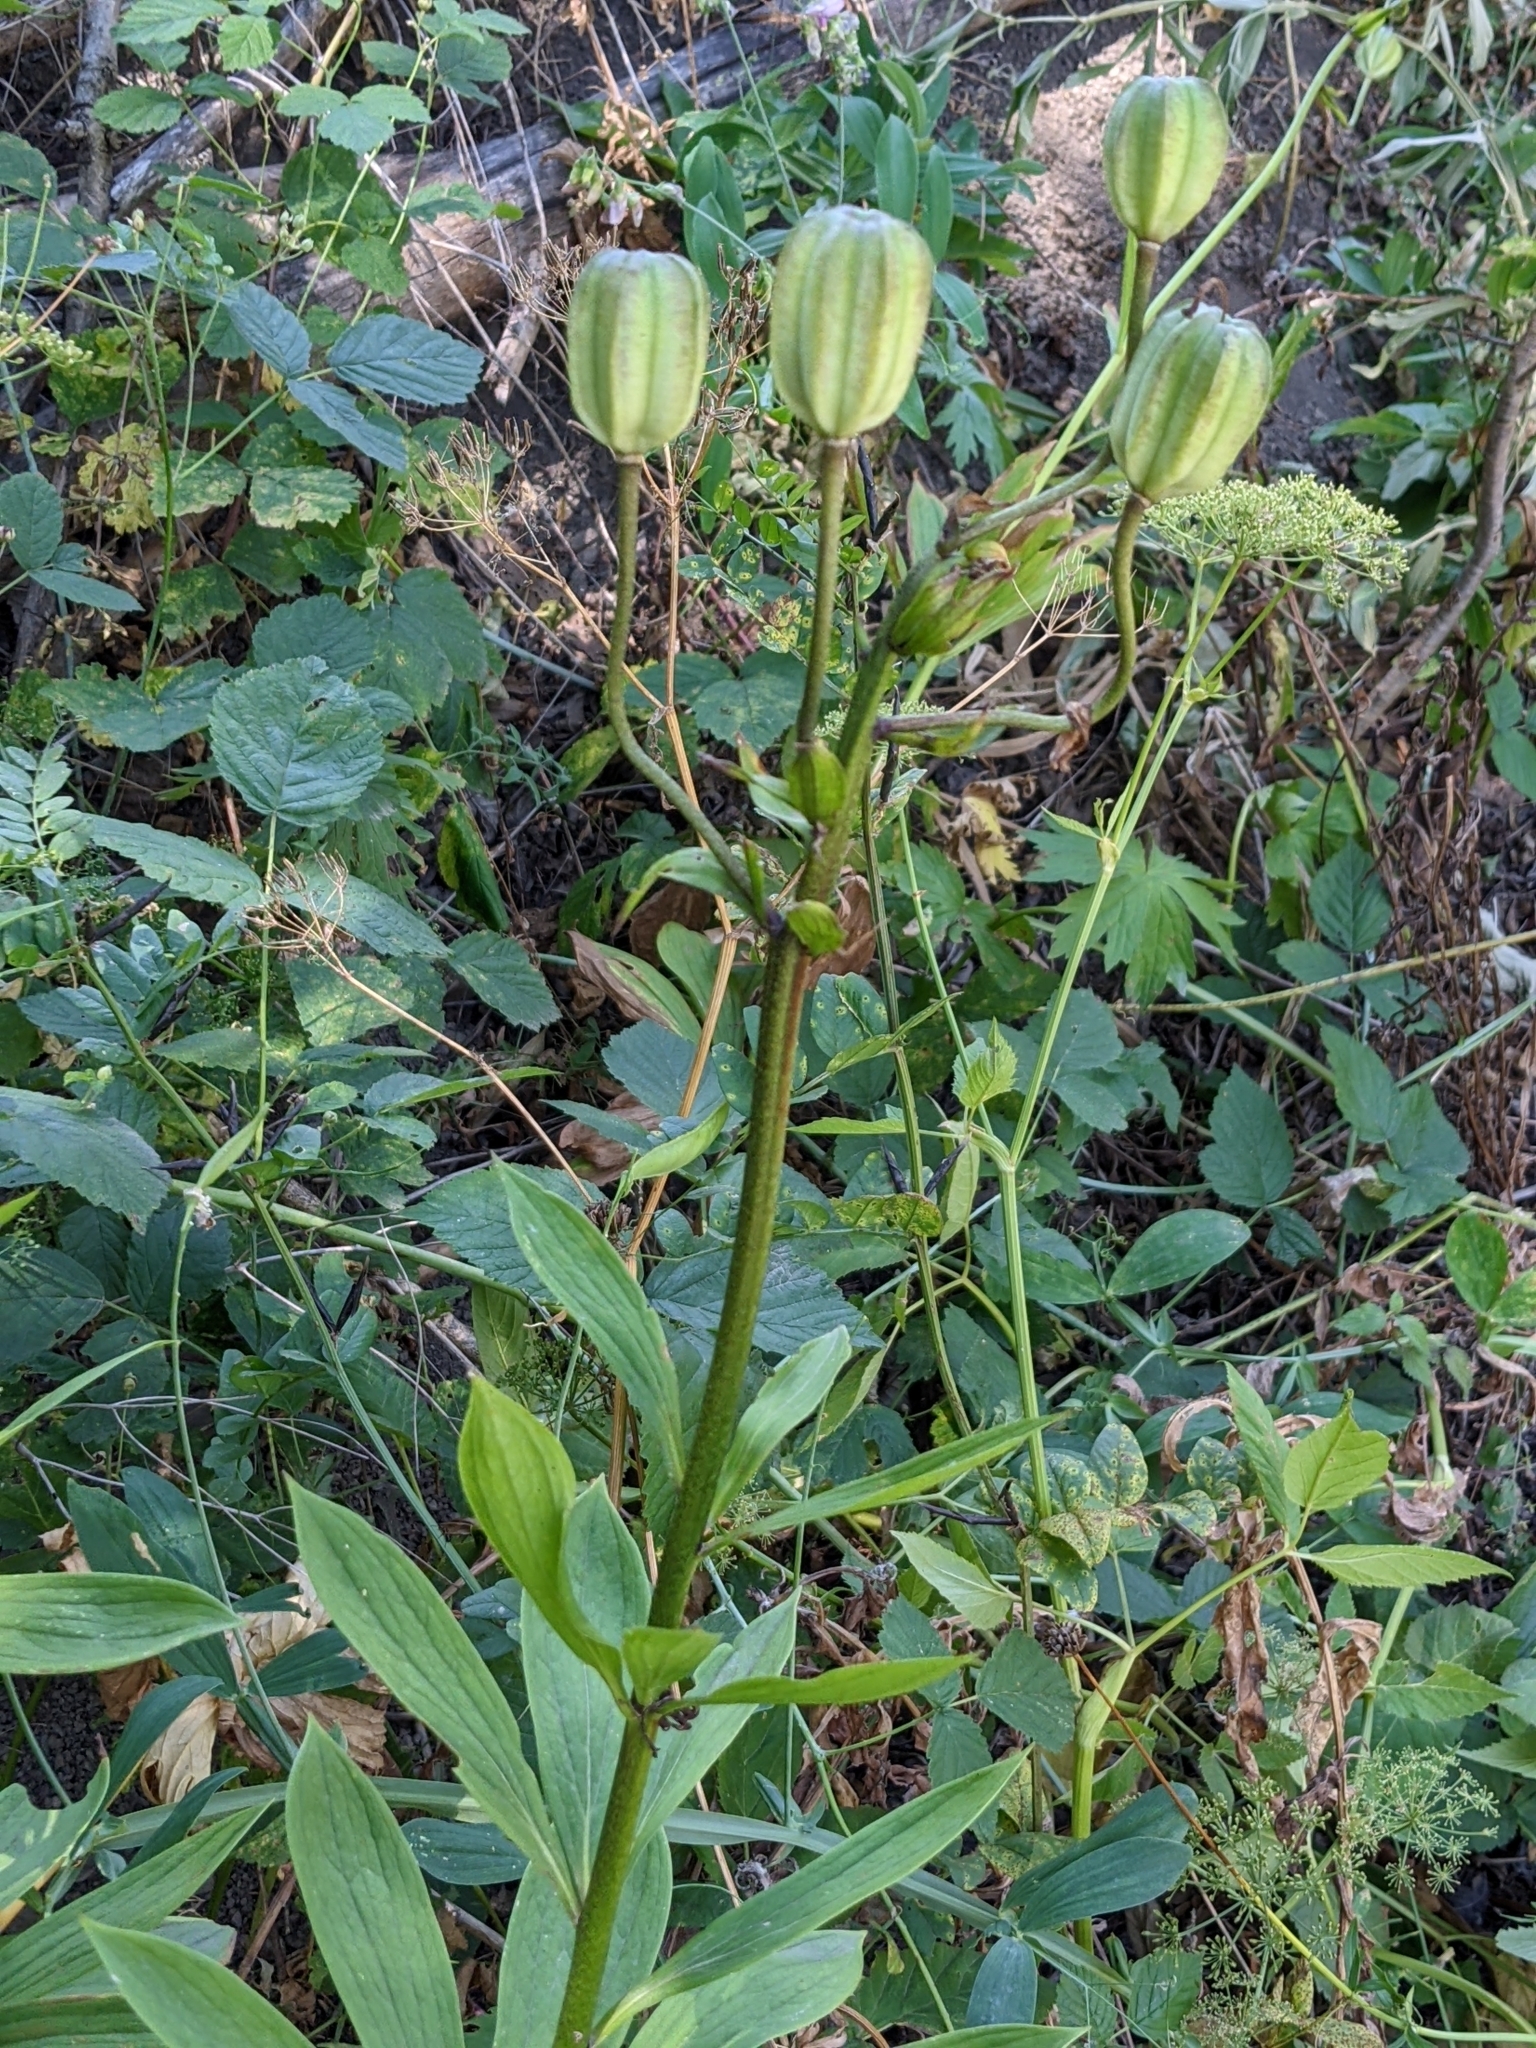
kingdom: Plantae
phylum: Tracheophyta
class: Liliopsida
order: Liliales
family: Liliaceae
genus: Lilium
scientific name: Lilium martagon
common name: Martagon lily
